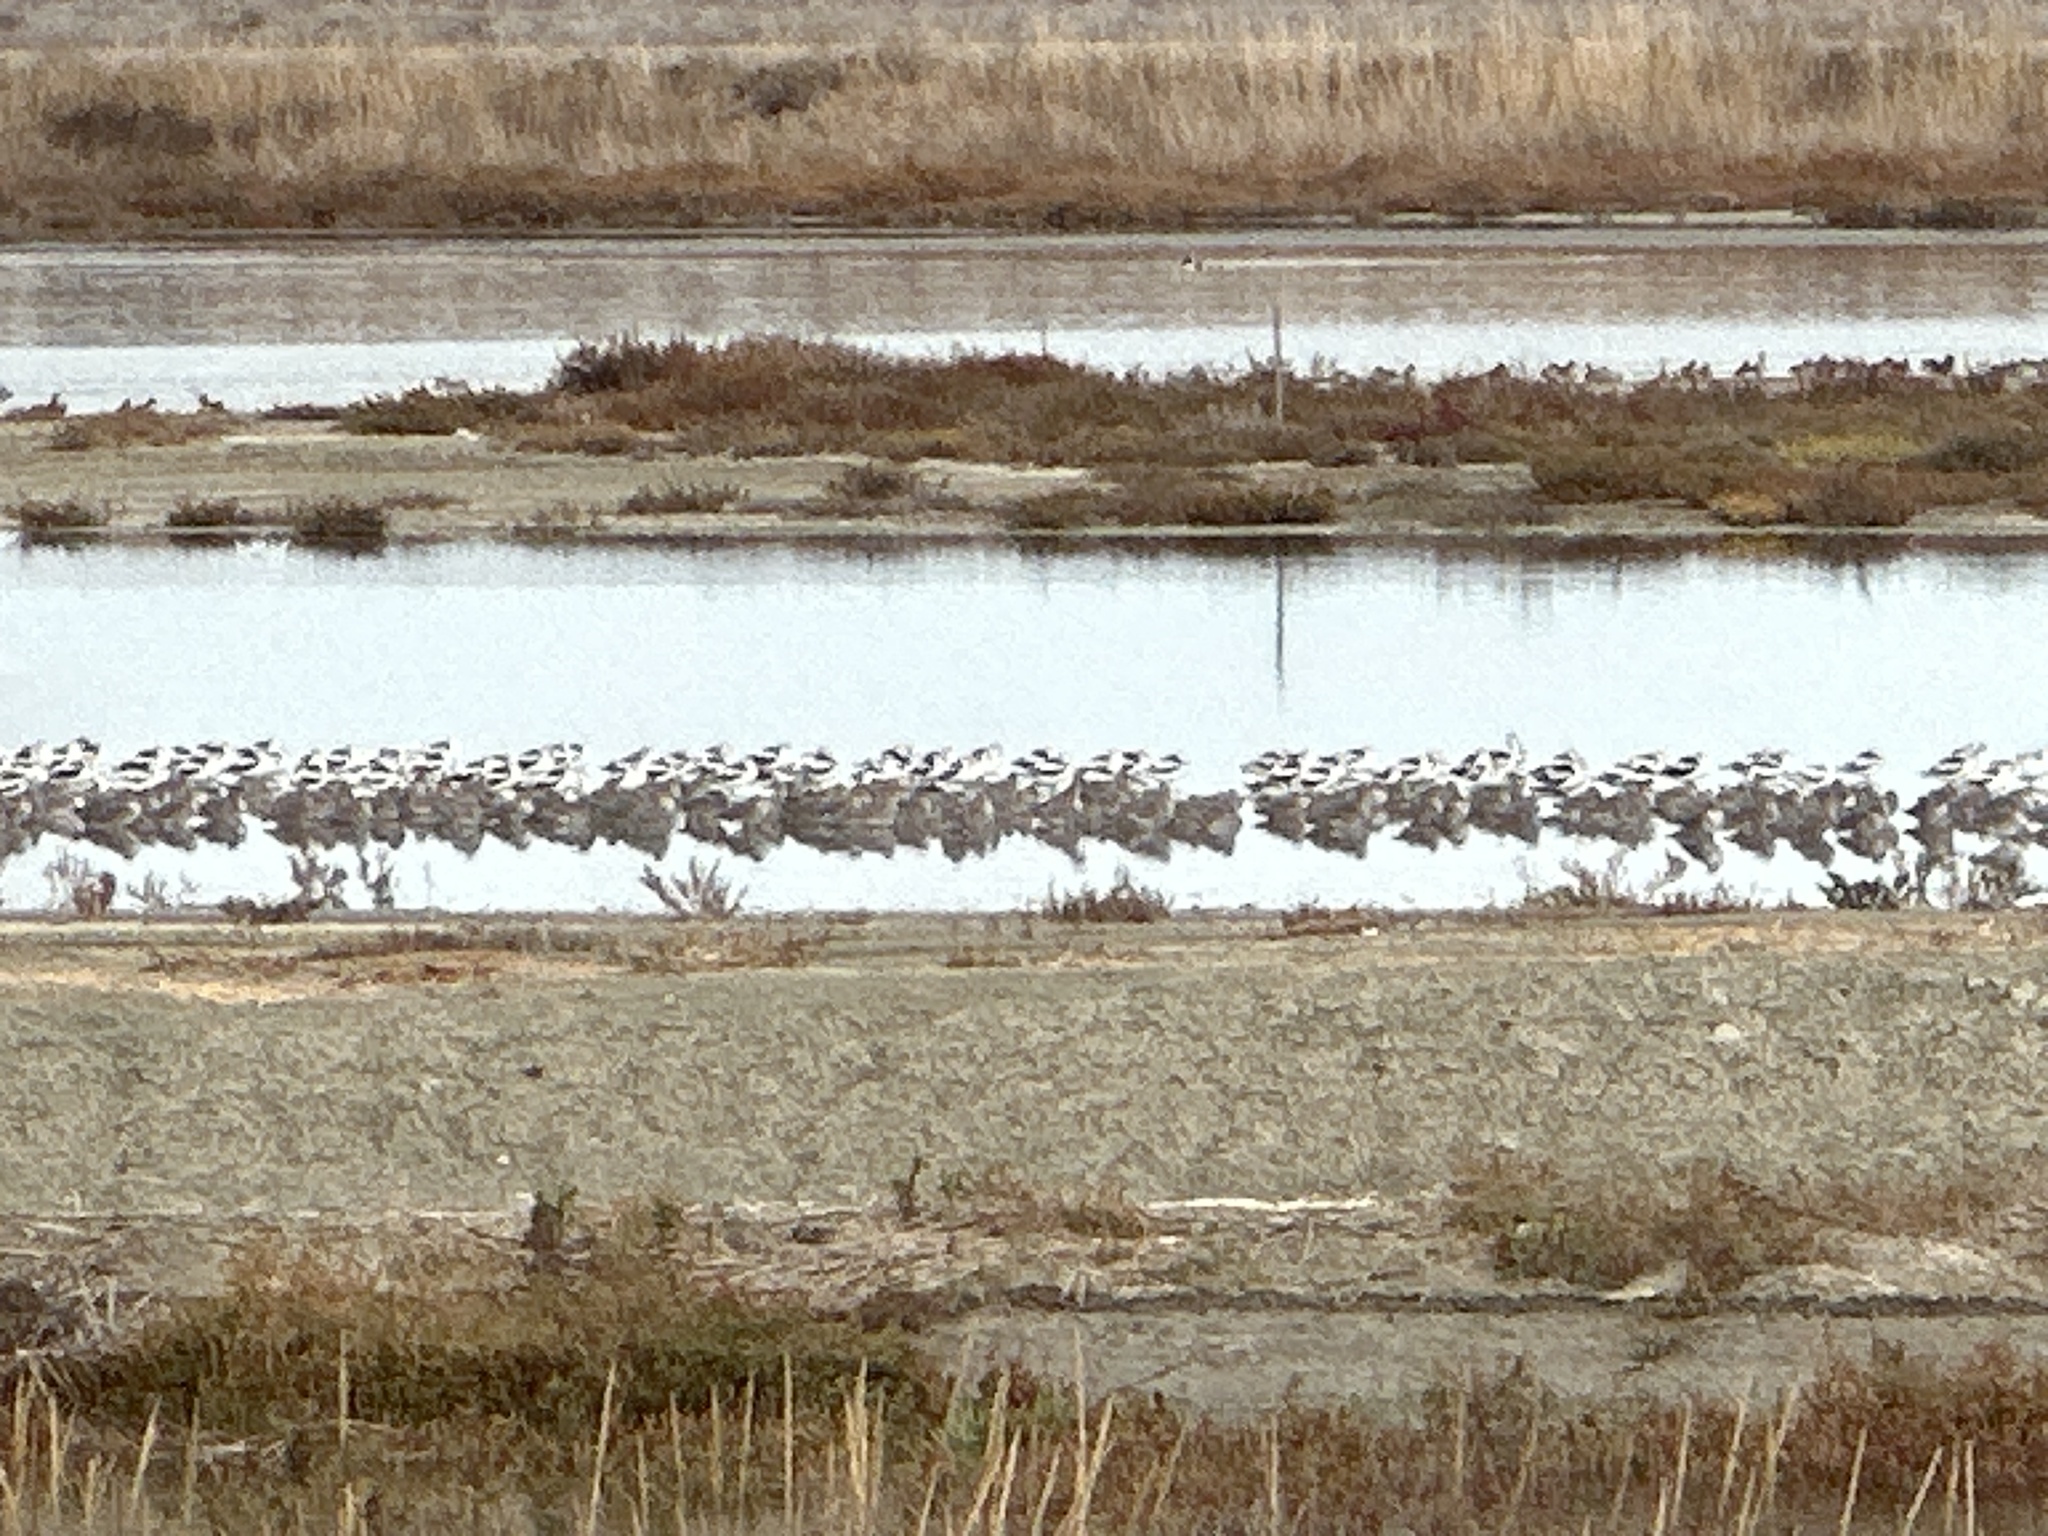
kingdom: Animalia
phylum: Chordata
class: Aves
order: Charadriiformes
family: Recurvirostridae
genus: Recurvirostra
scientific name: Recurvirostra americana
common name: American avocet
